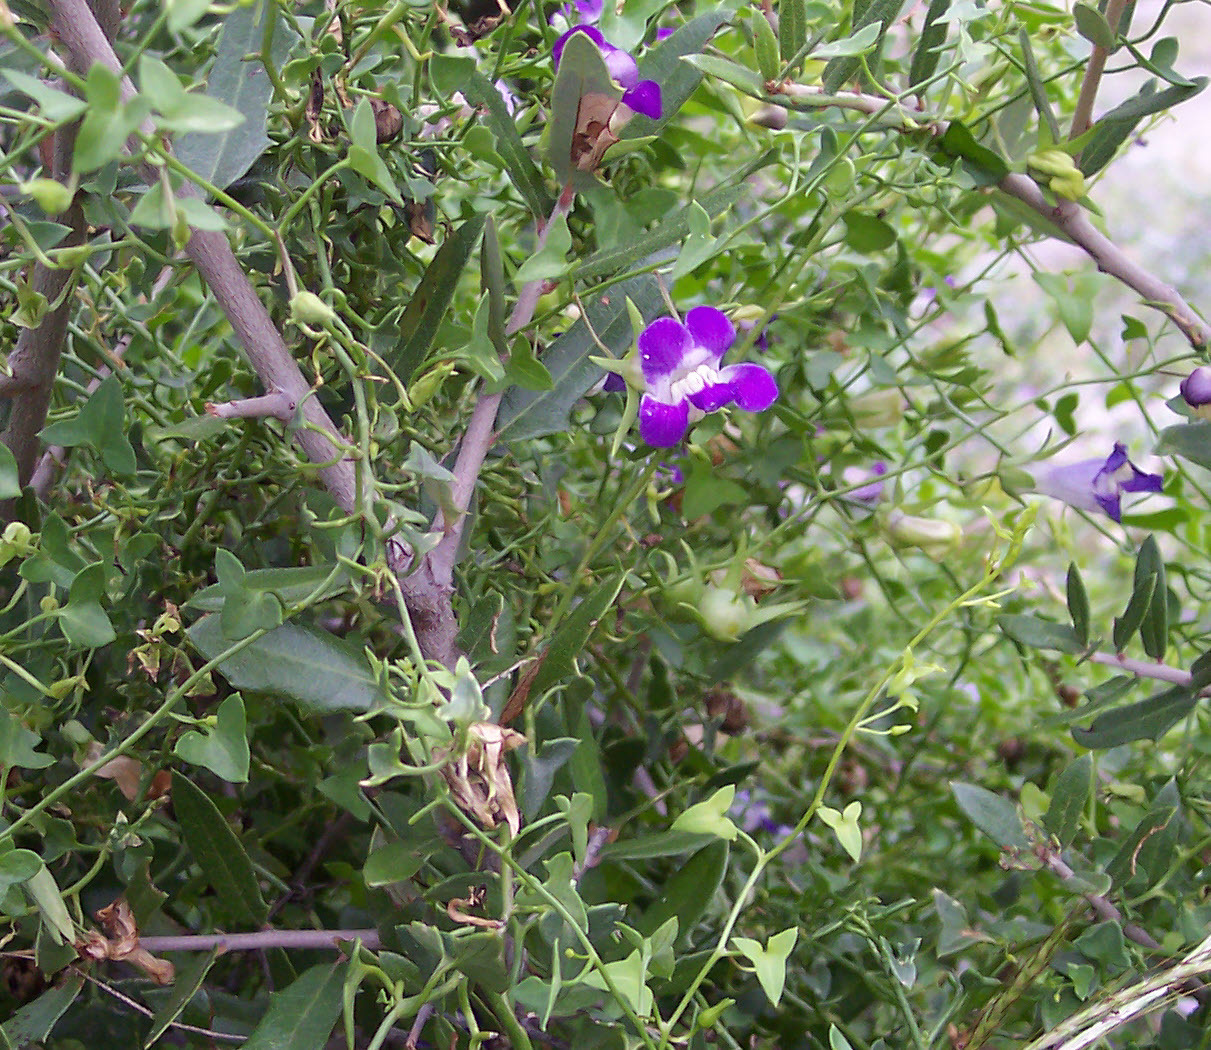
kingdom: Plantae
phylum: Tracheophyta
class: Magnoliopsida
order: Lamiales
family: Plantaginaceae
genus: Maurandella
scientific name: Maurandella antirrhiniflora
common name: Violet twining-snapdragon
